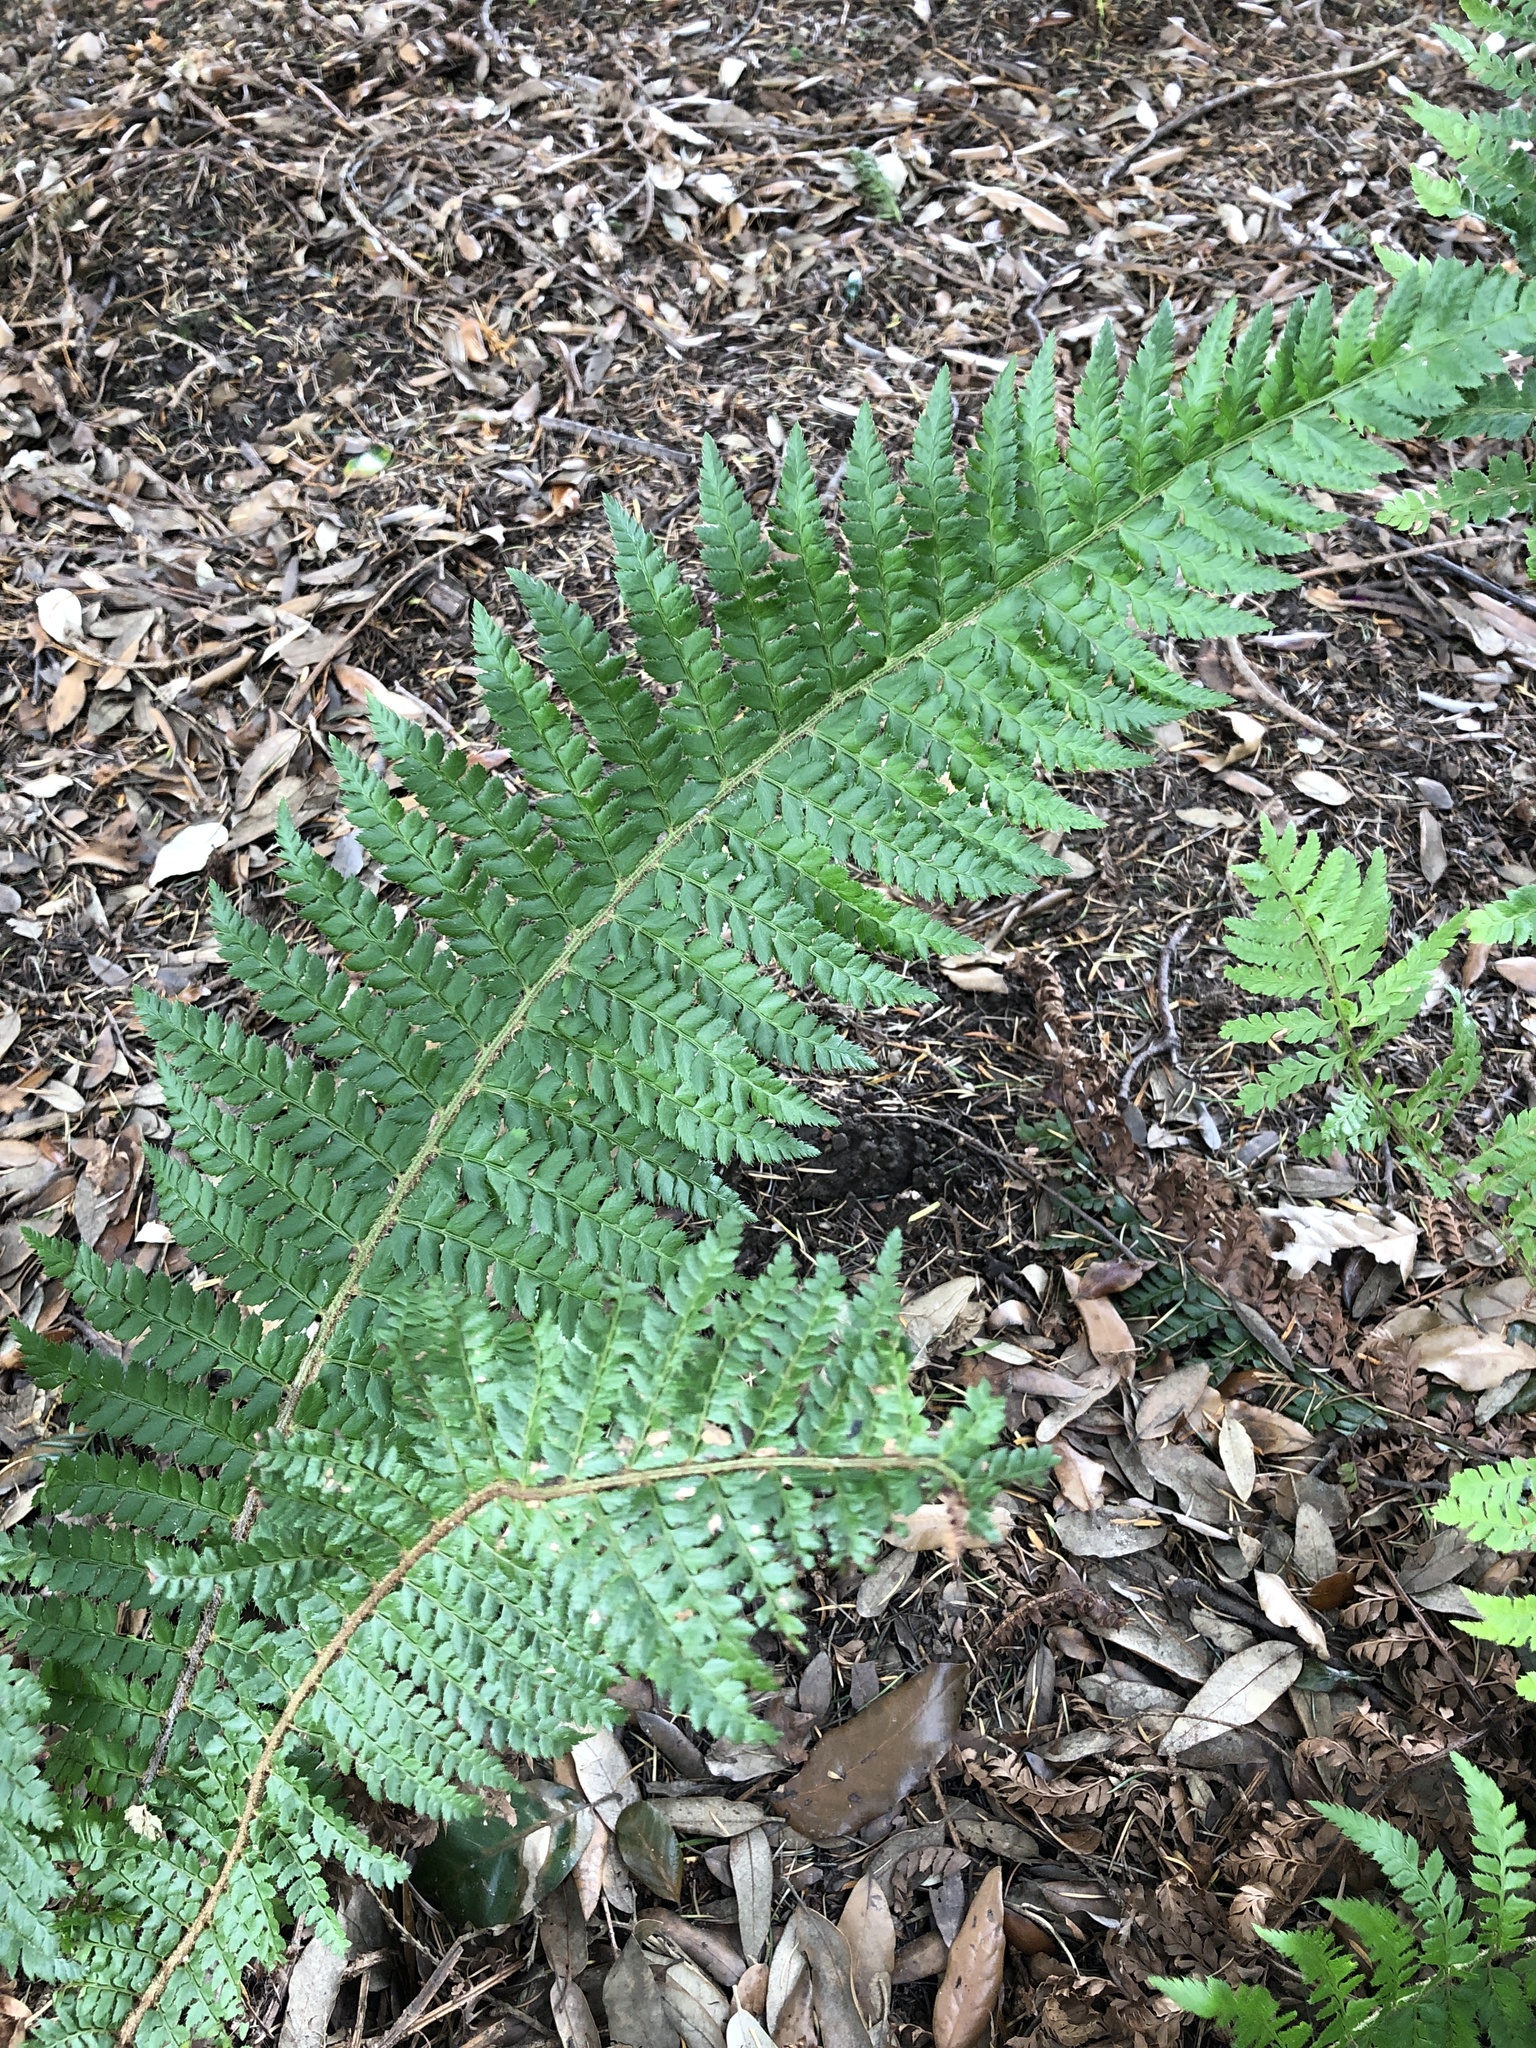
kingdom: Plantae
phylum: Tracheophyta
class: Polypodiopsida
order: Polypodiales
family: Dryopteridaceae
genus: Polystichum
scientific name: Polystichum setiferum
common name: Soft shield-fern
